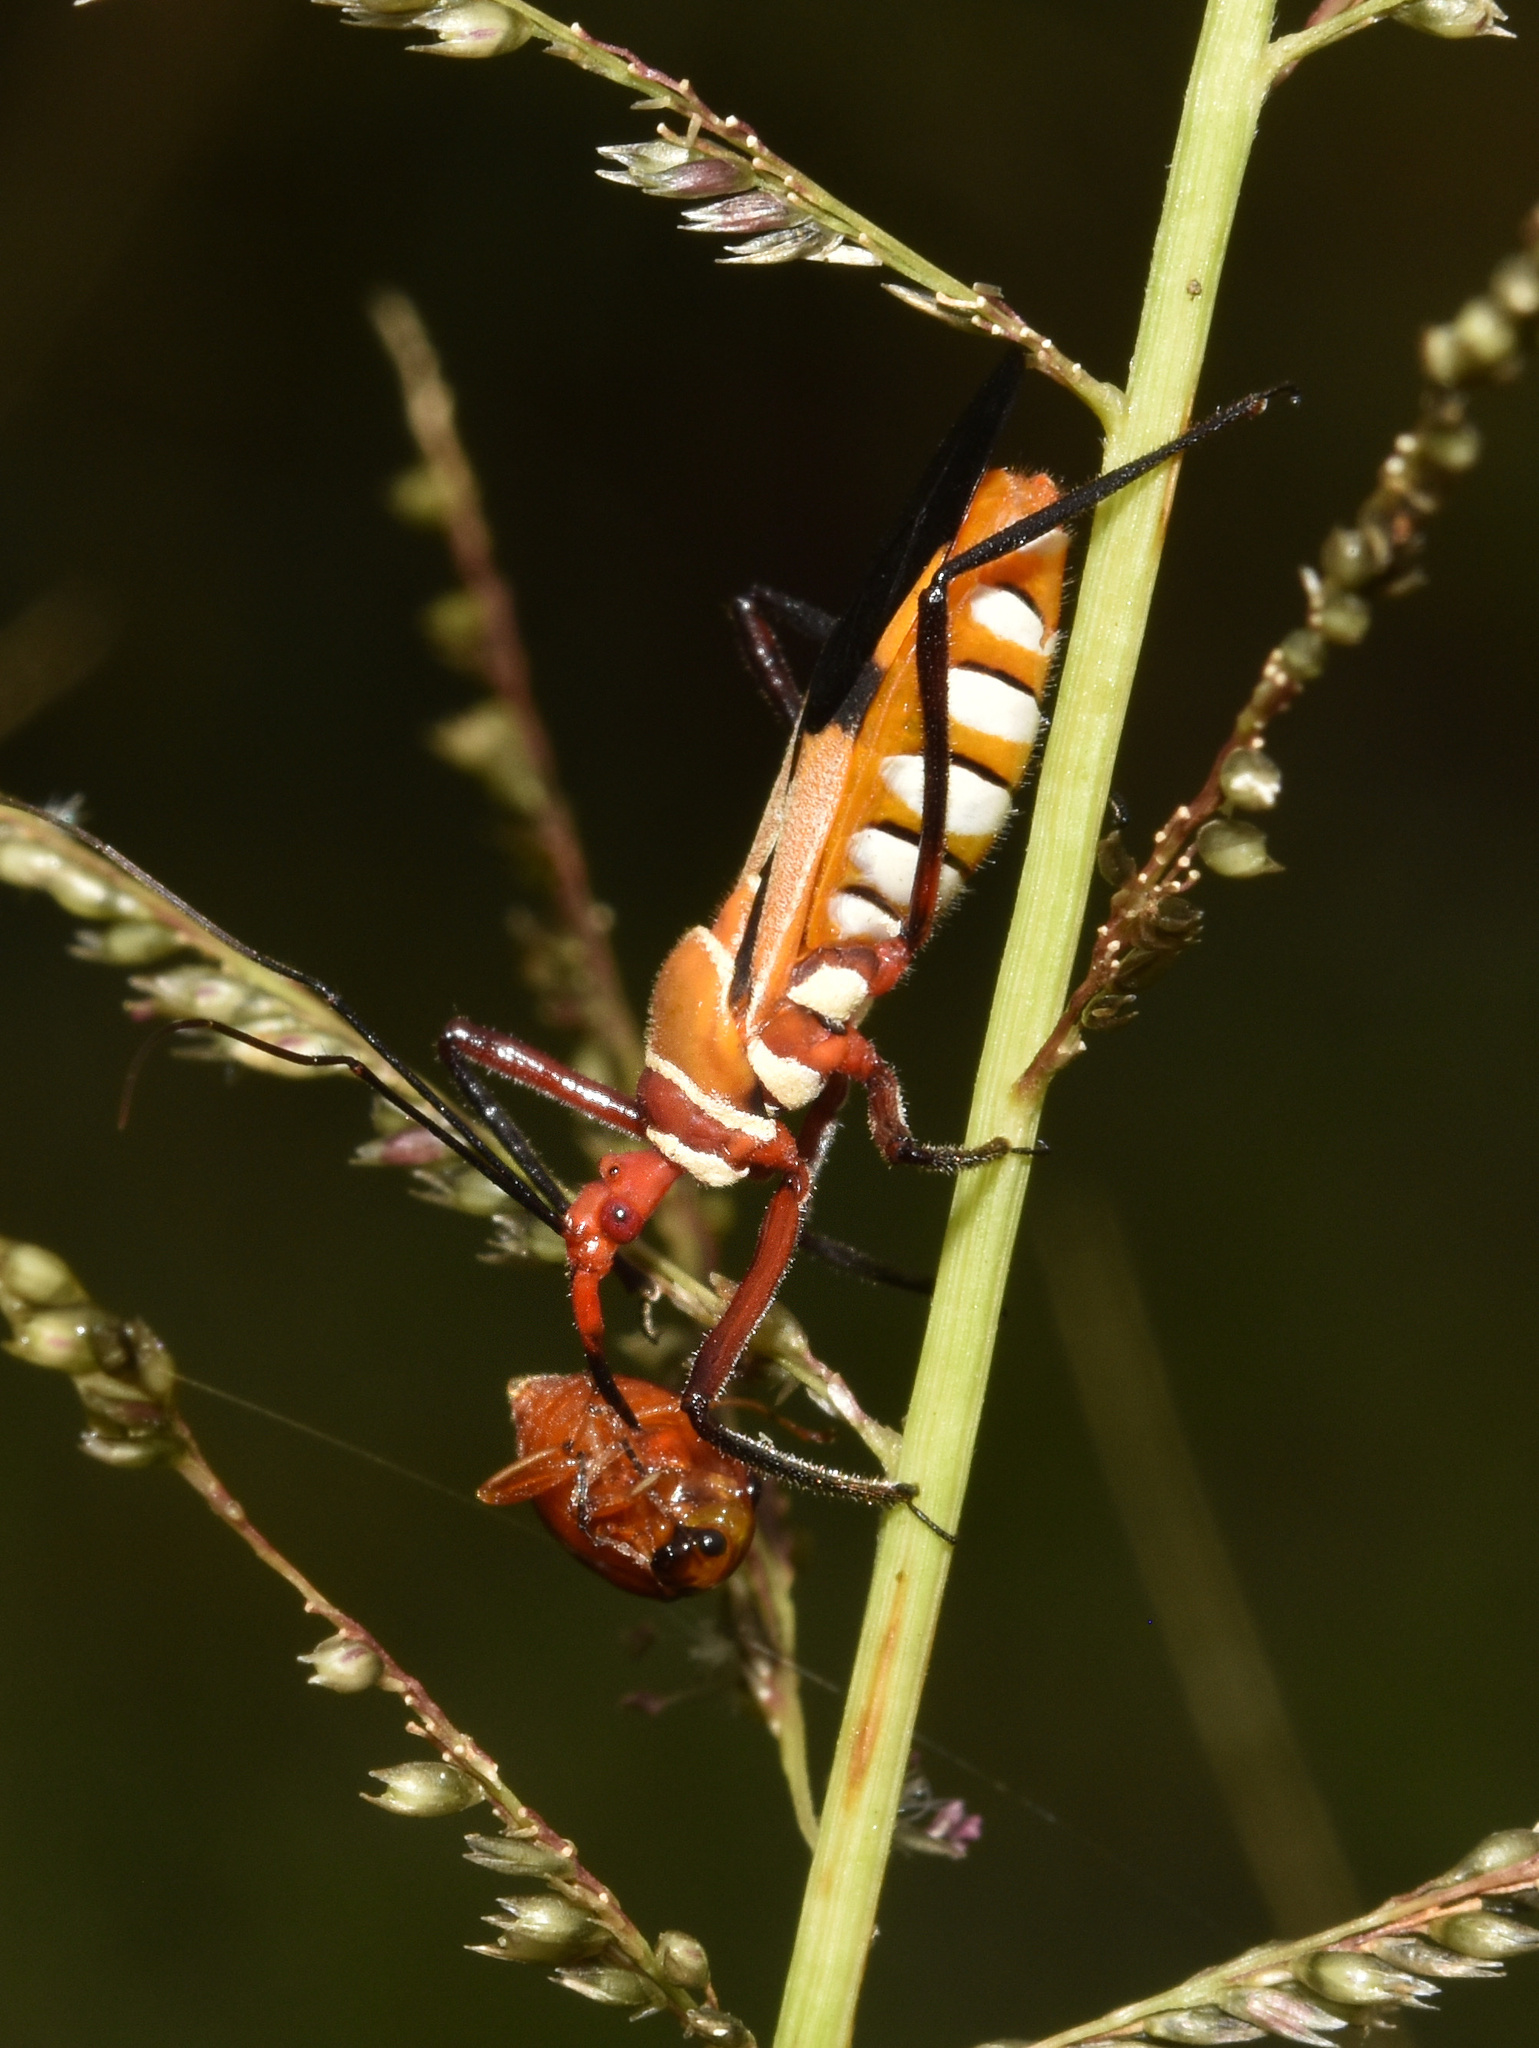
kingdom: Animalia
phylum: Arthropoda
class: Insecta
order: Hemiptera
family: Reduviidae
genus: Hediocoris
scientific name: Hediocoris tibialis
